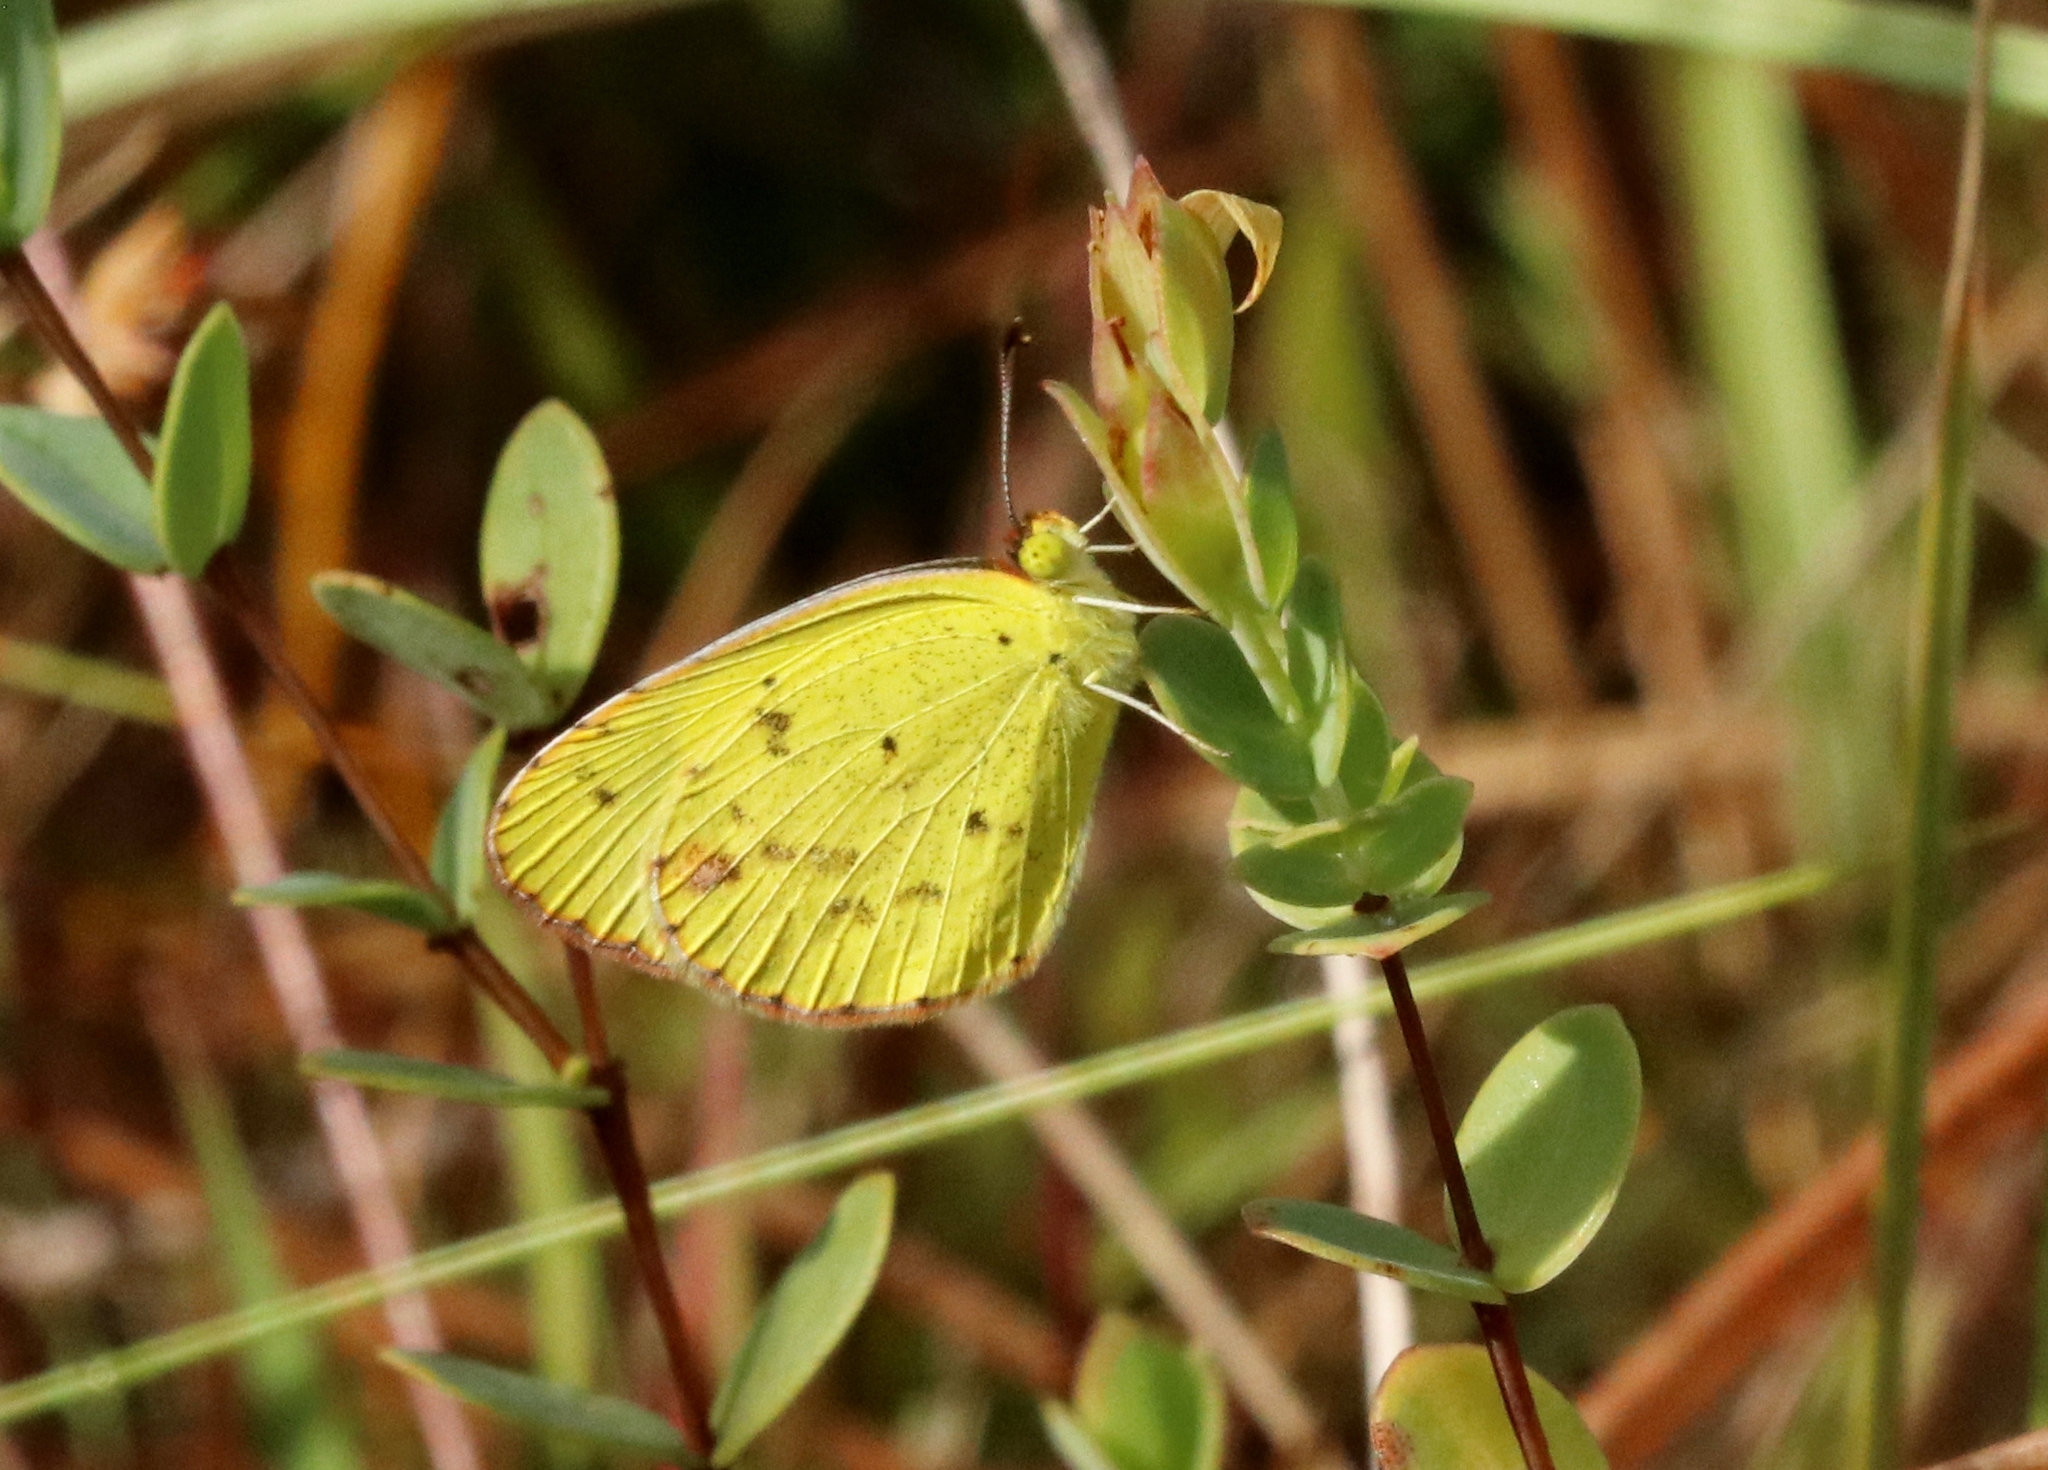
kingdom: Animalia
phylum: Arthropoda
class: Insecta
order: Lepidoptera
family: Pieridae
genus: Pyrisitia
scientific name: Pyrisitia lisa
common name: Little yellow
